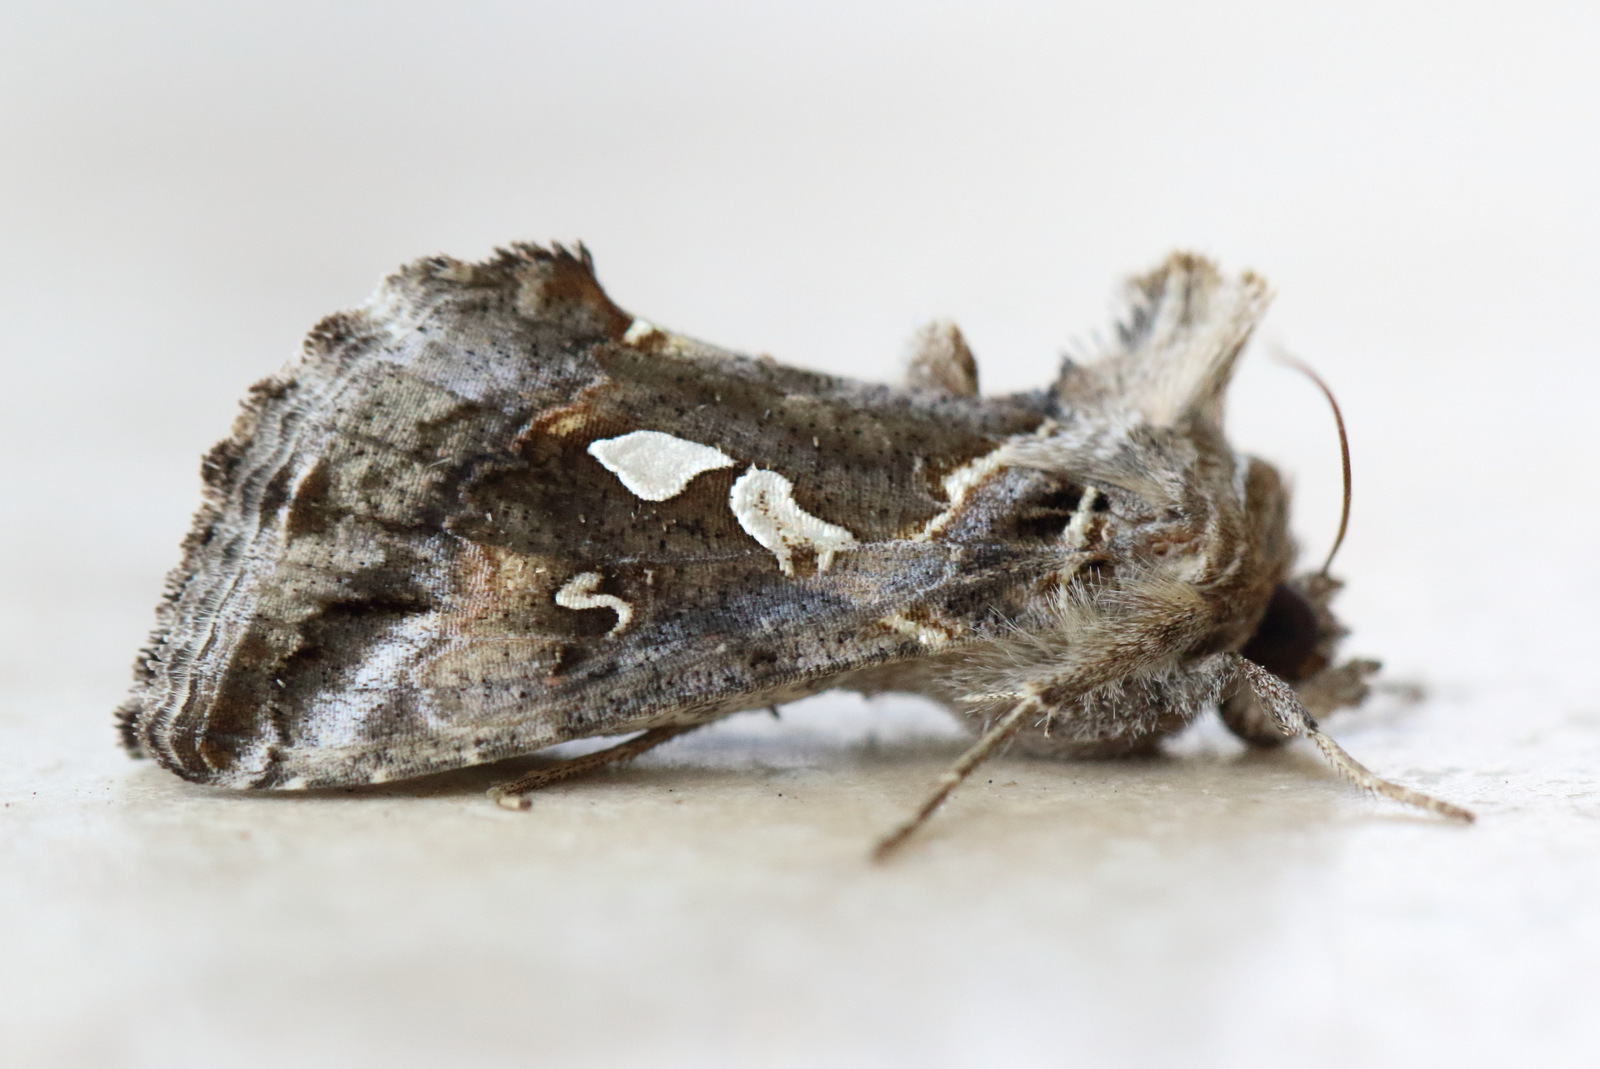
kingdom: Animalia
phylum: Arthropoda
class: Insecta
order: Lepidoptera
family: Noctuidae
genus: Chrysodeixis
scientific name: Chrysodeixis argentifera
